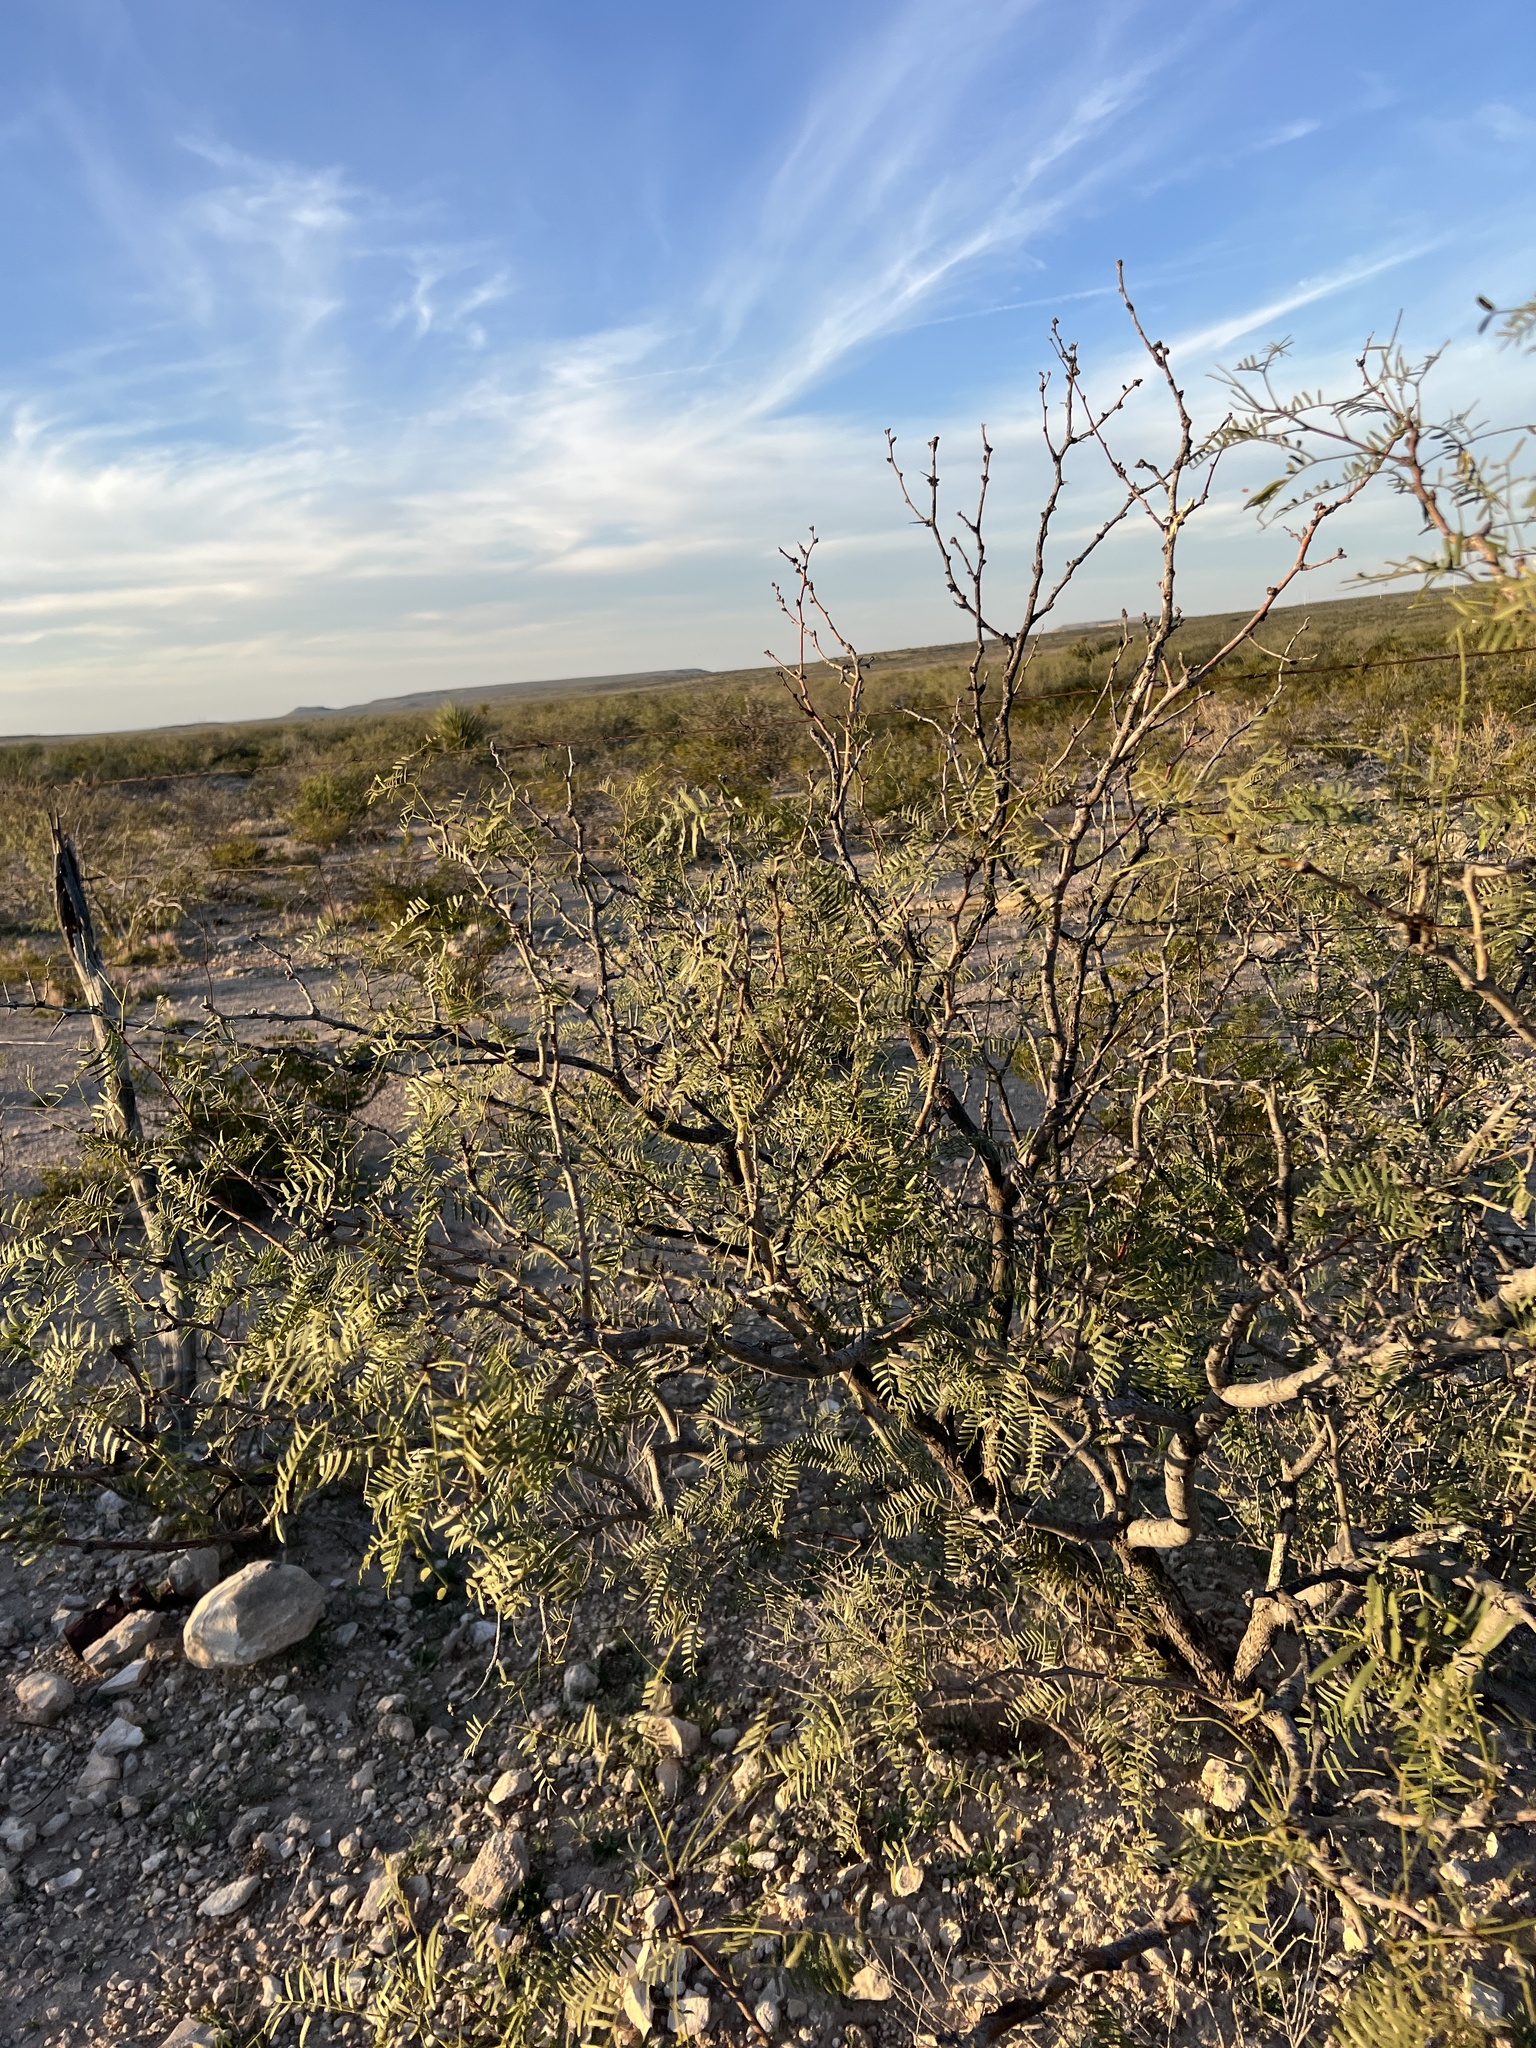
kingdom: Plantae
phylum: Tracheophyta
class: Magnoliopsida
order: Fabales
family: Fabaceae
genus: Prosopis
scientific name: Prosopis glandulosa
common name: Honey mesquite
